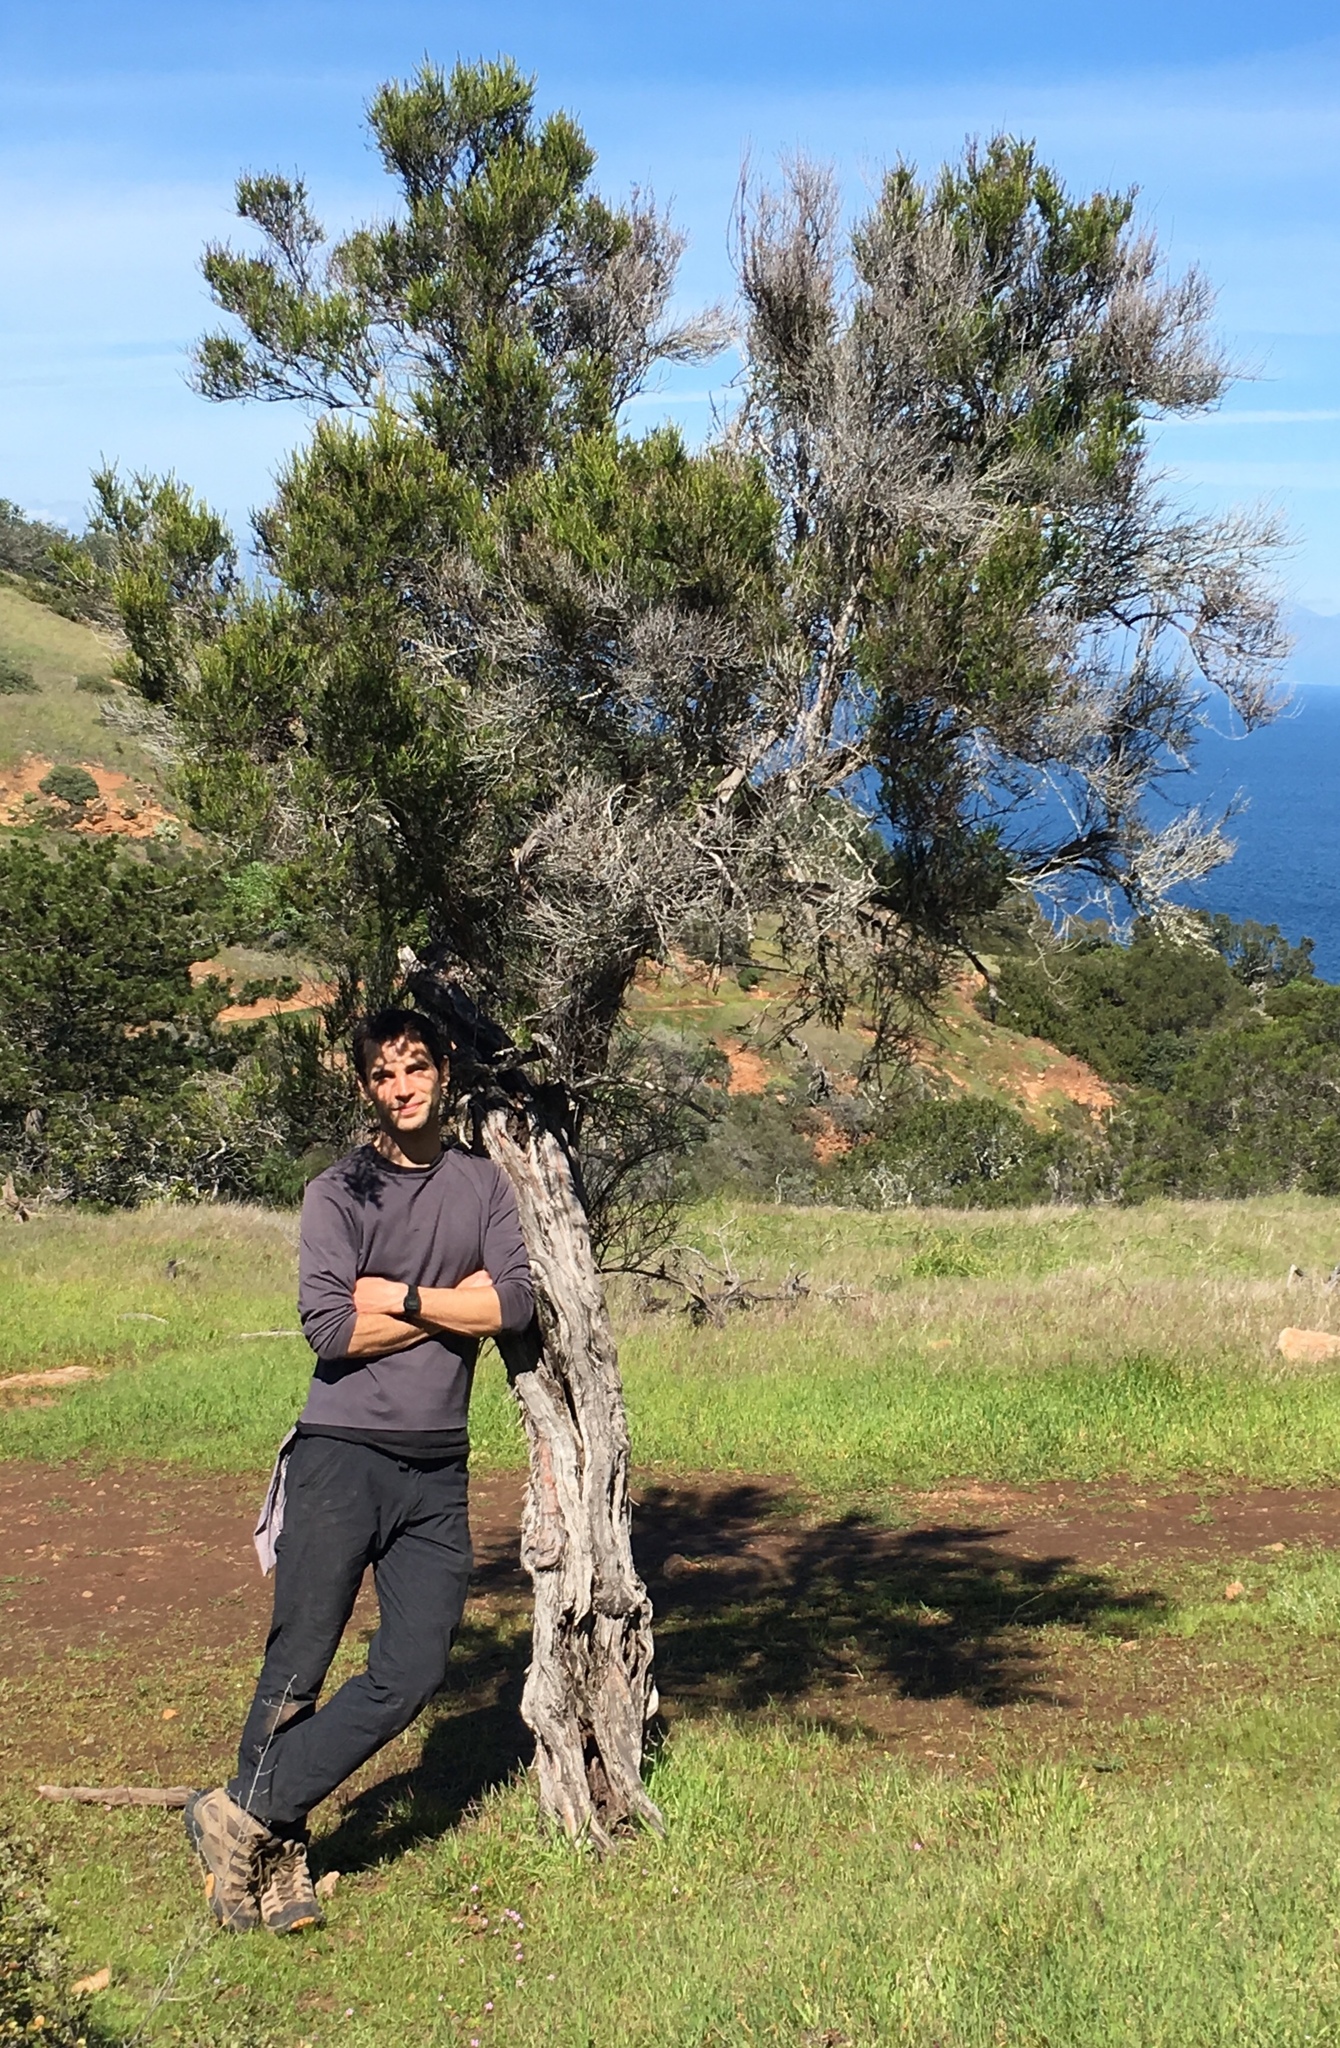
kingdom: Plantae
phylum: Tracheophyta
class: Magnoliopsida
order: Rosales
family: Rosaceae
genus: Adenostoma
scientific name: Adenostoma fasciculatum
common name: Chamise
